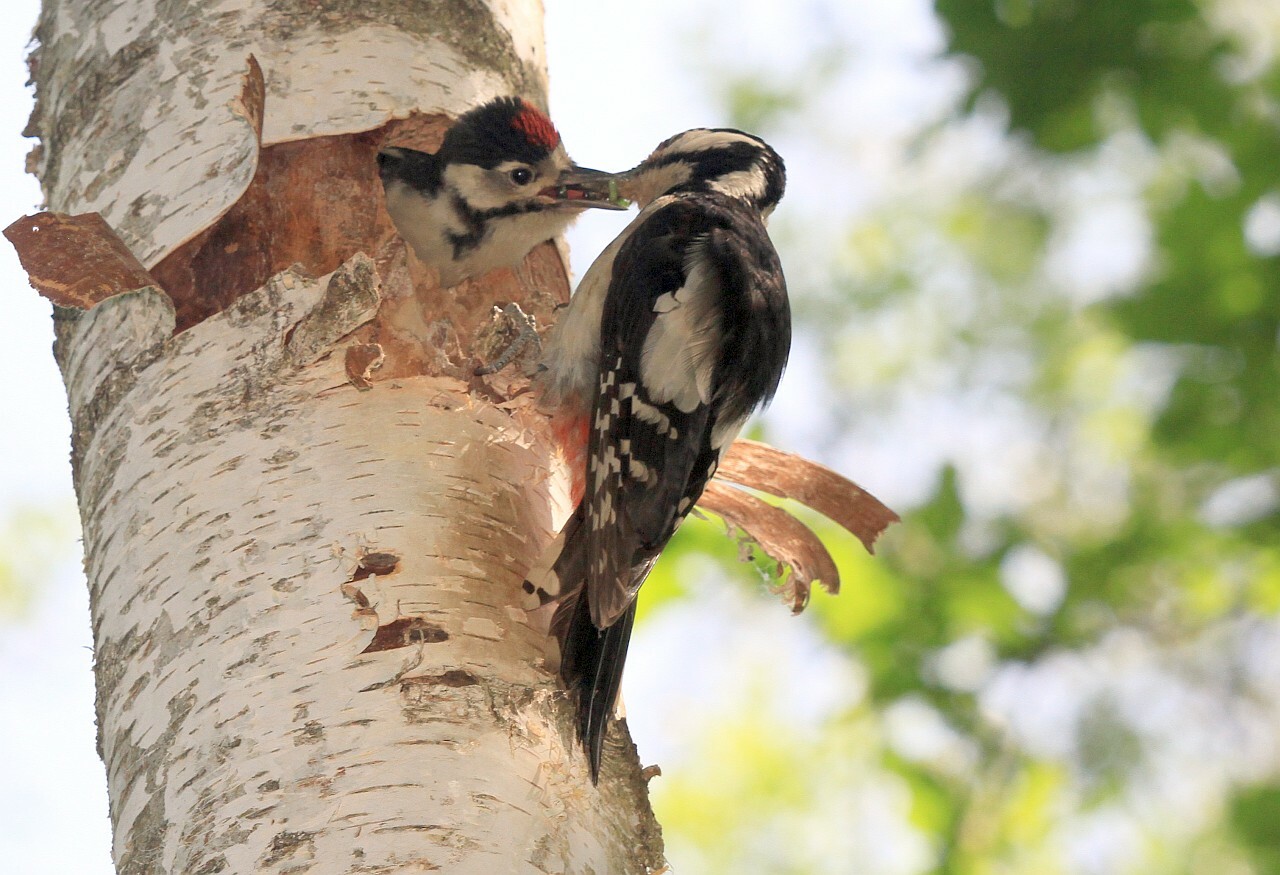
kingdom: Animalia
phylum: Chordata
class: Aves
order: Piciformes
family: Picidae
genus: Dendrocopos
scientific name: Dendrocopos major
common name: Great spotted woodpecker
